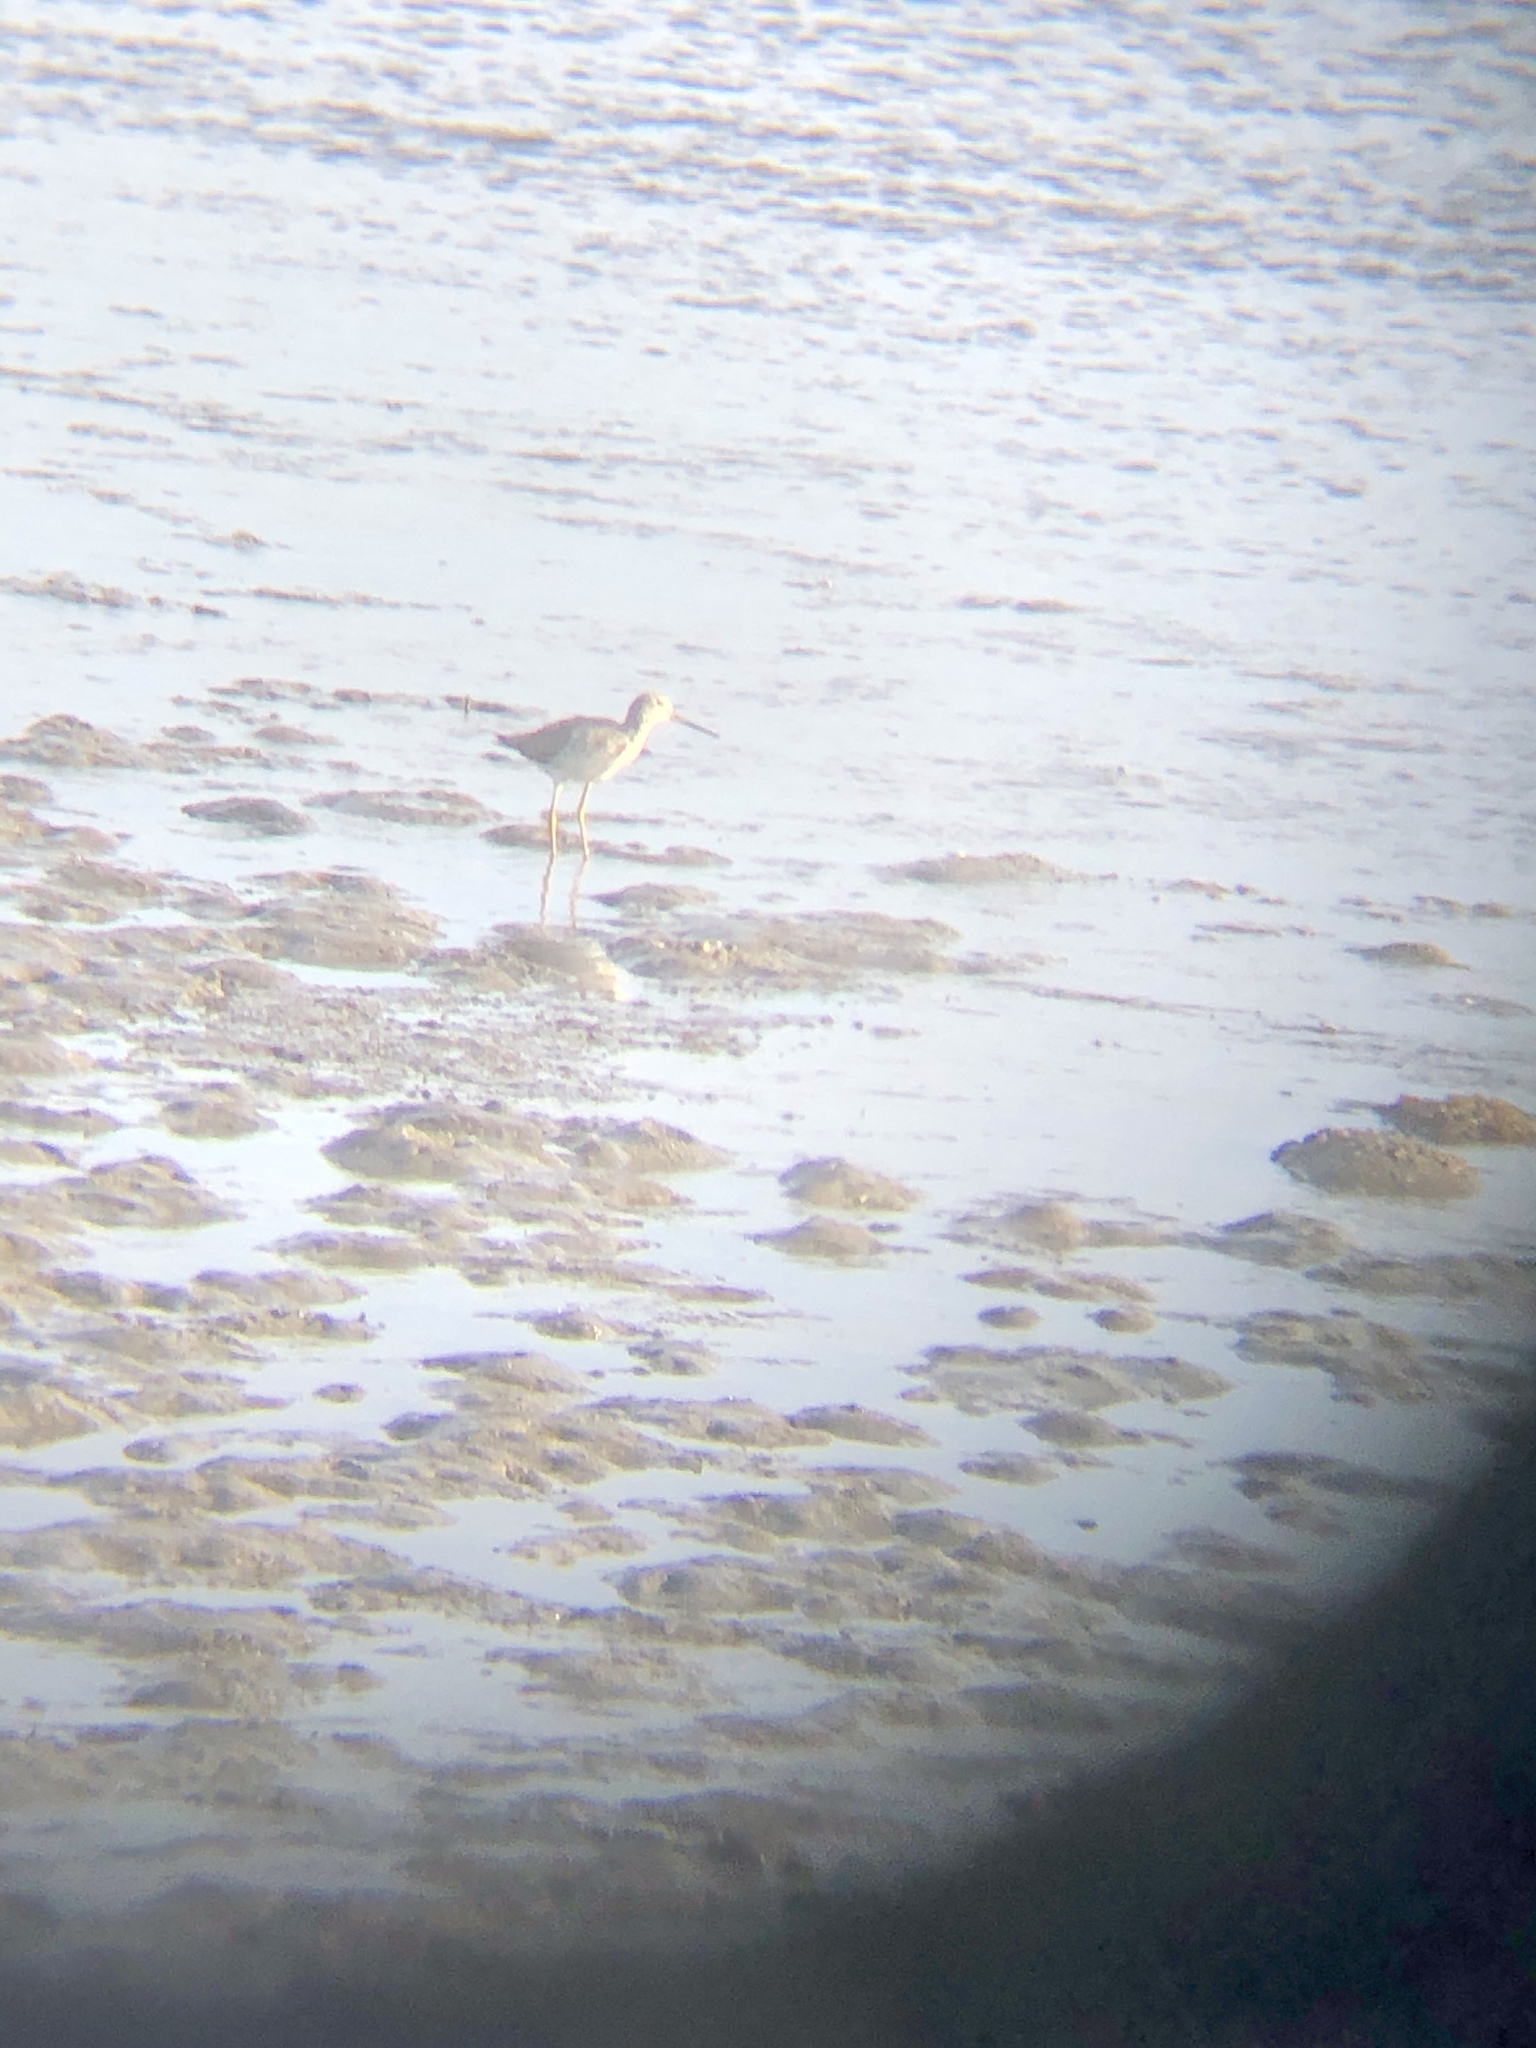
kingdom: Animalia
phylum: Chordata
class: Aves
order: Charadriiformes
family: Scolopacidae
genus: Tringa
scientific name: Tringa melanoleuca
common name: Greater yellowlegs
